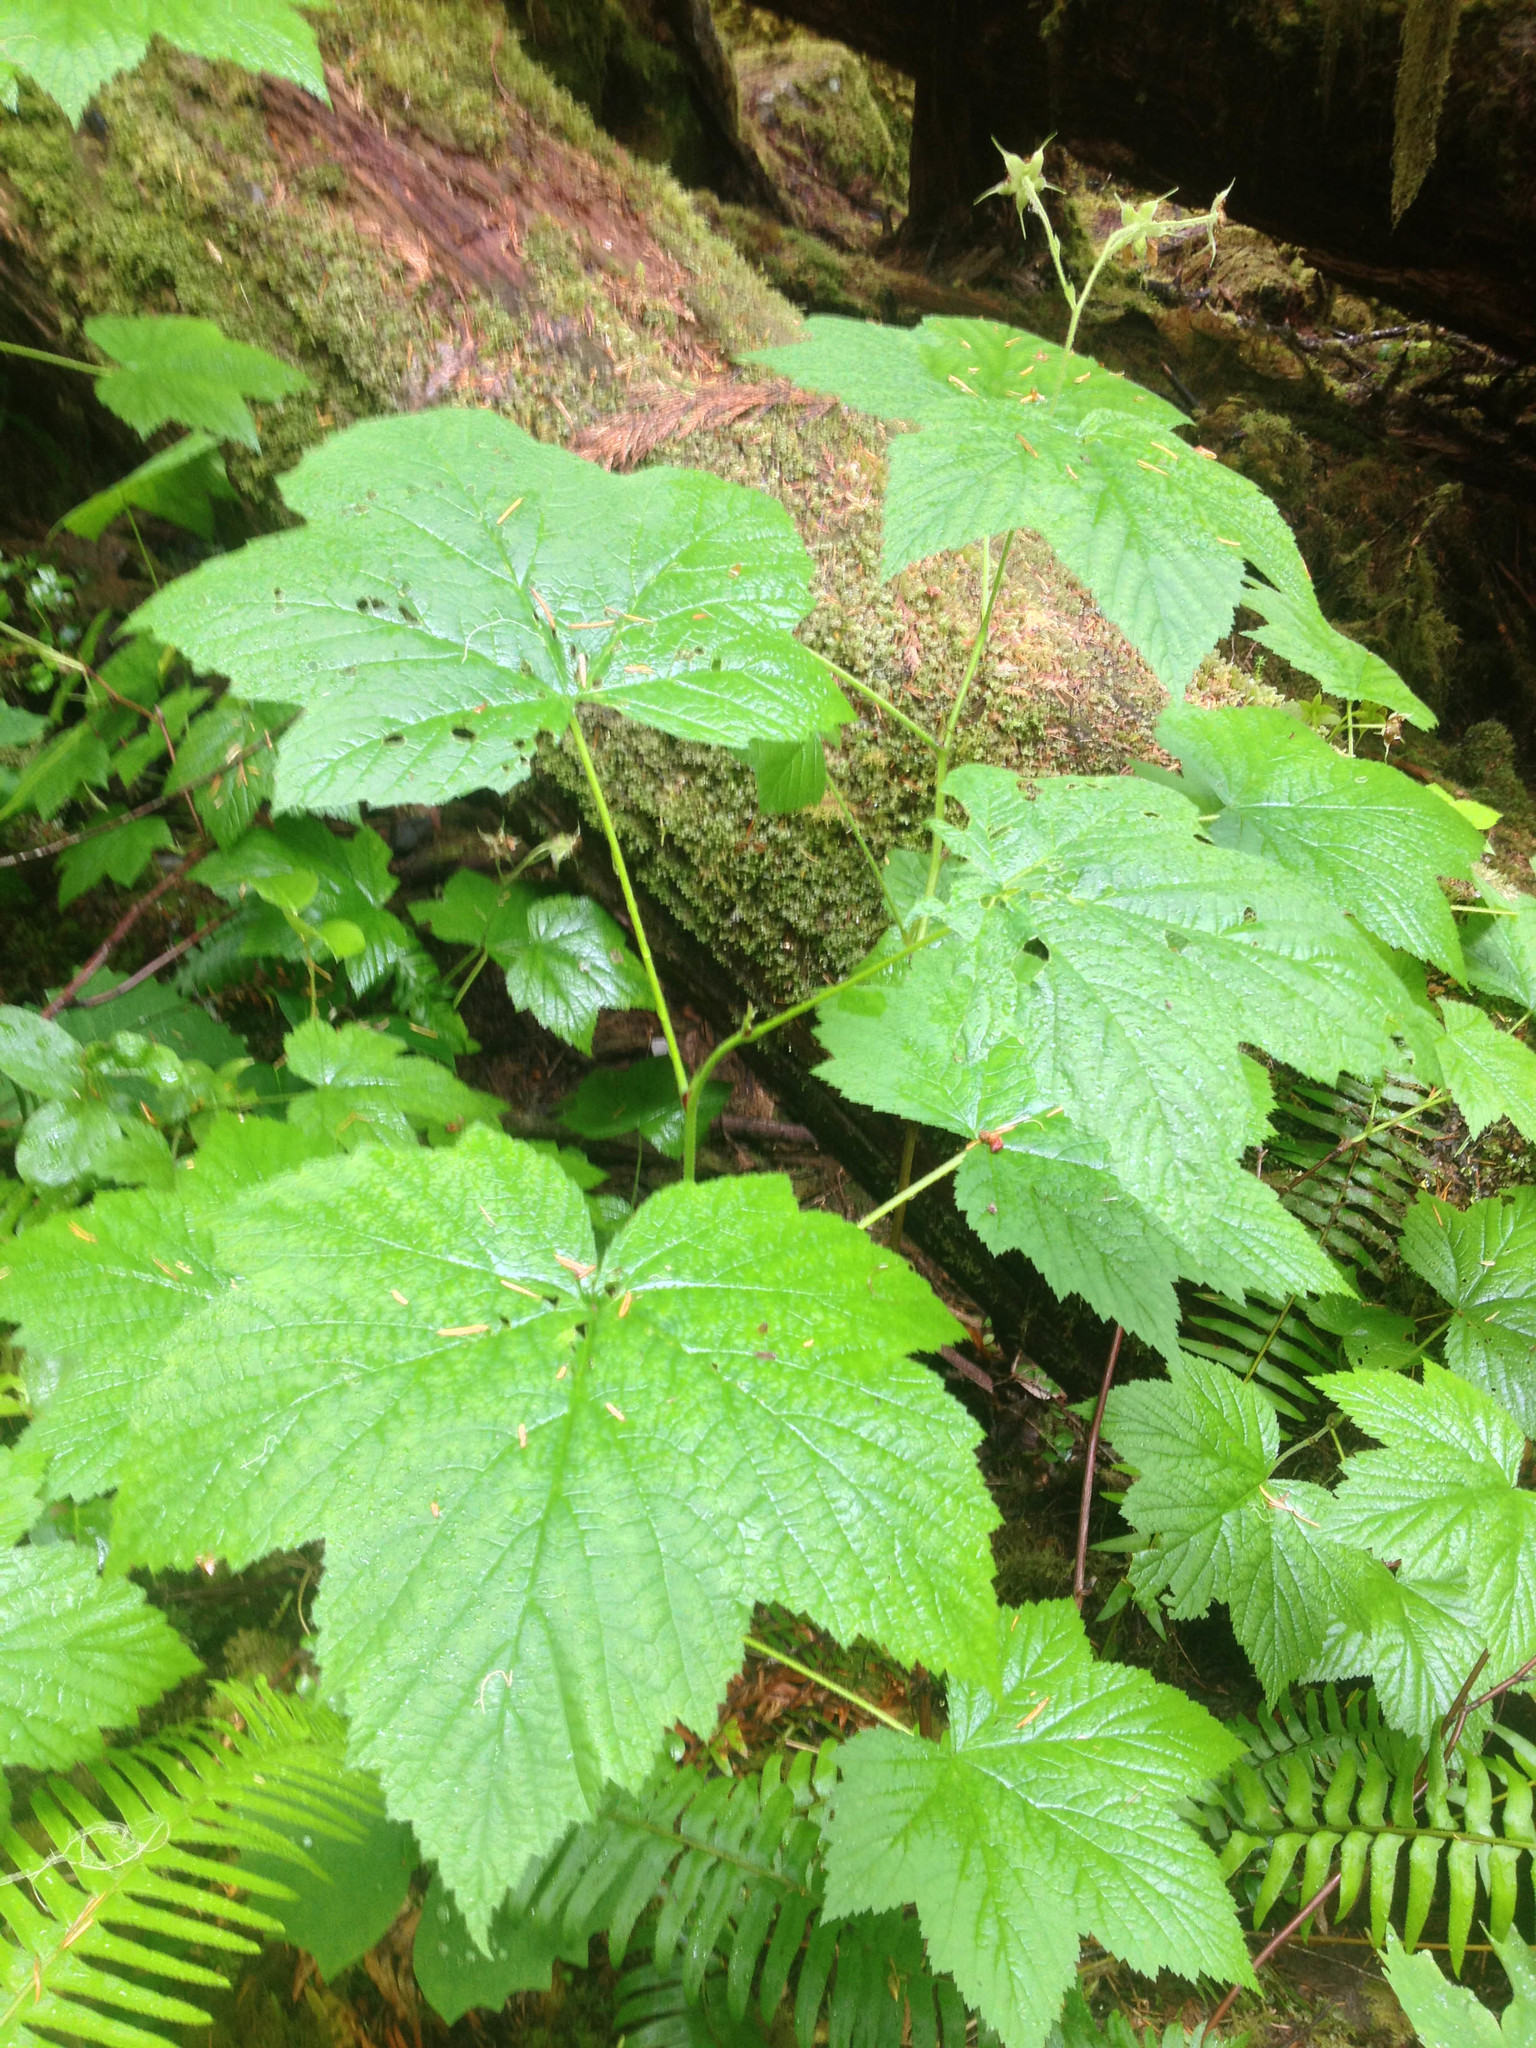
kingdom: Plantae
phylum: Tracheophyta
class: Magnoliopsida
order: Rosales
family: Rosaceae
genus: Rubus
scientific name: Rubus parviflorus
